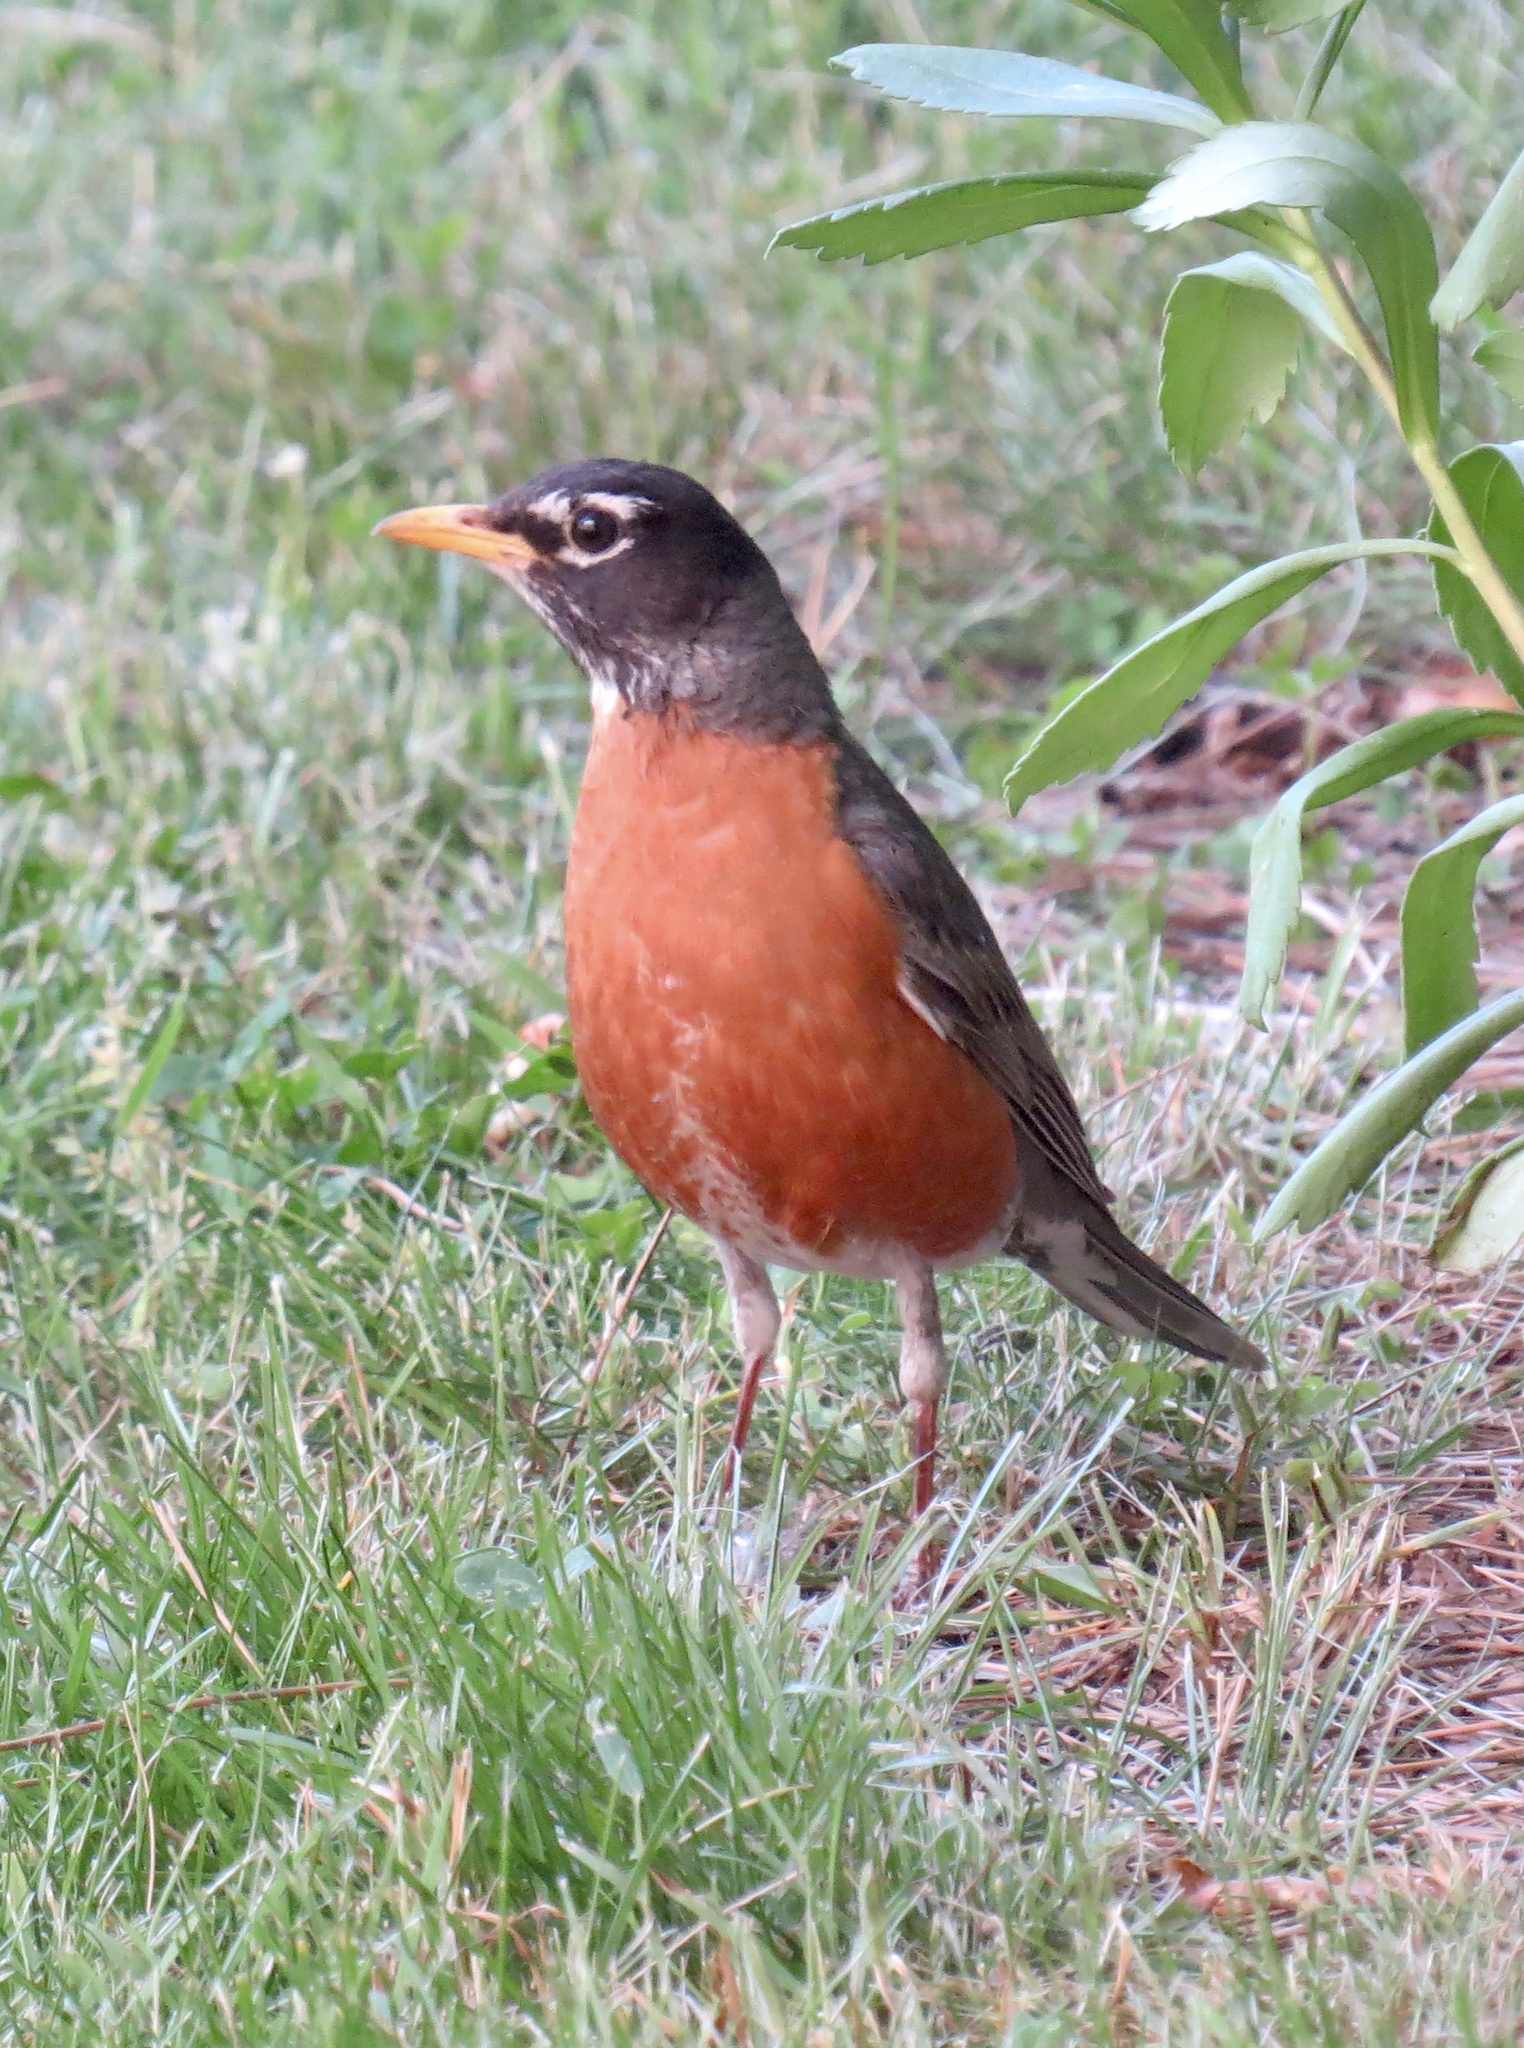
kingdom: Animalia
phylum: Chordata
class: Aves
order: Passeriformes
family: Turdidae
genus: Turdus
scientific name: Turdus migratorius
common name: American robin
